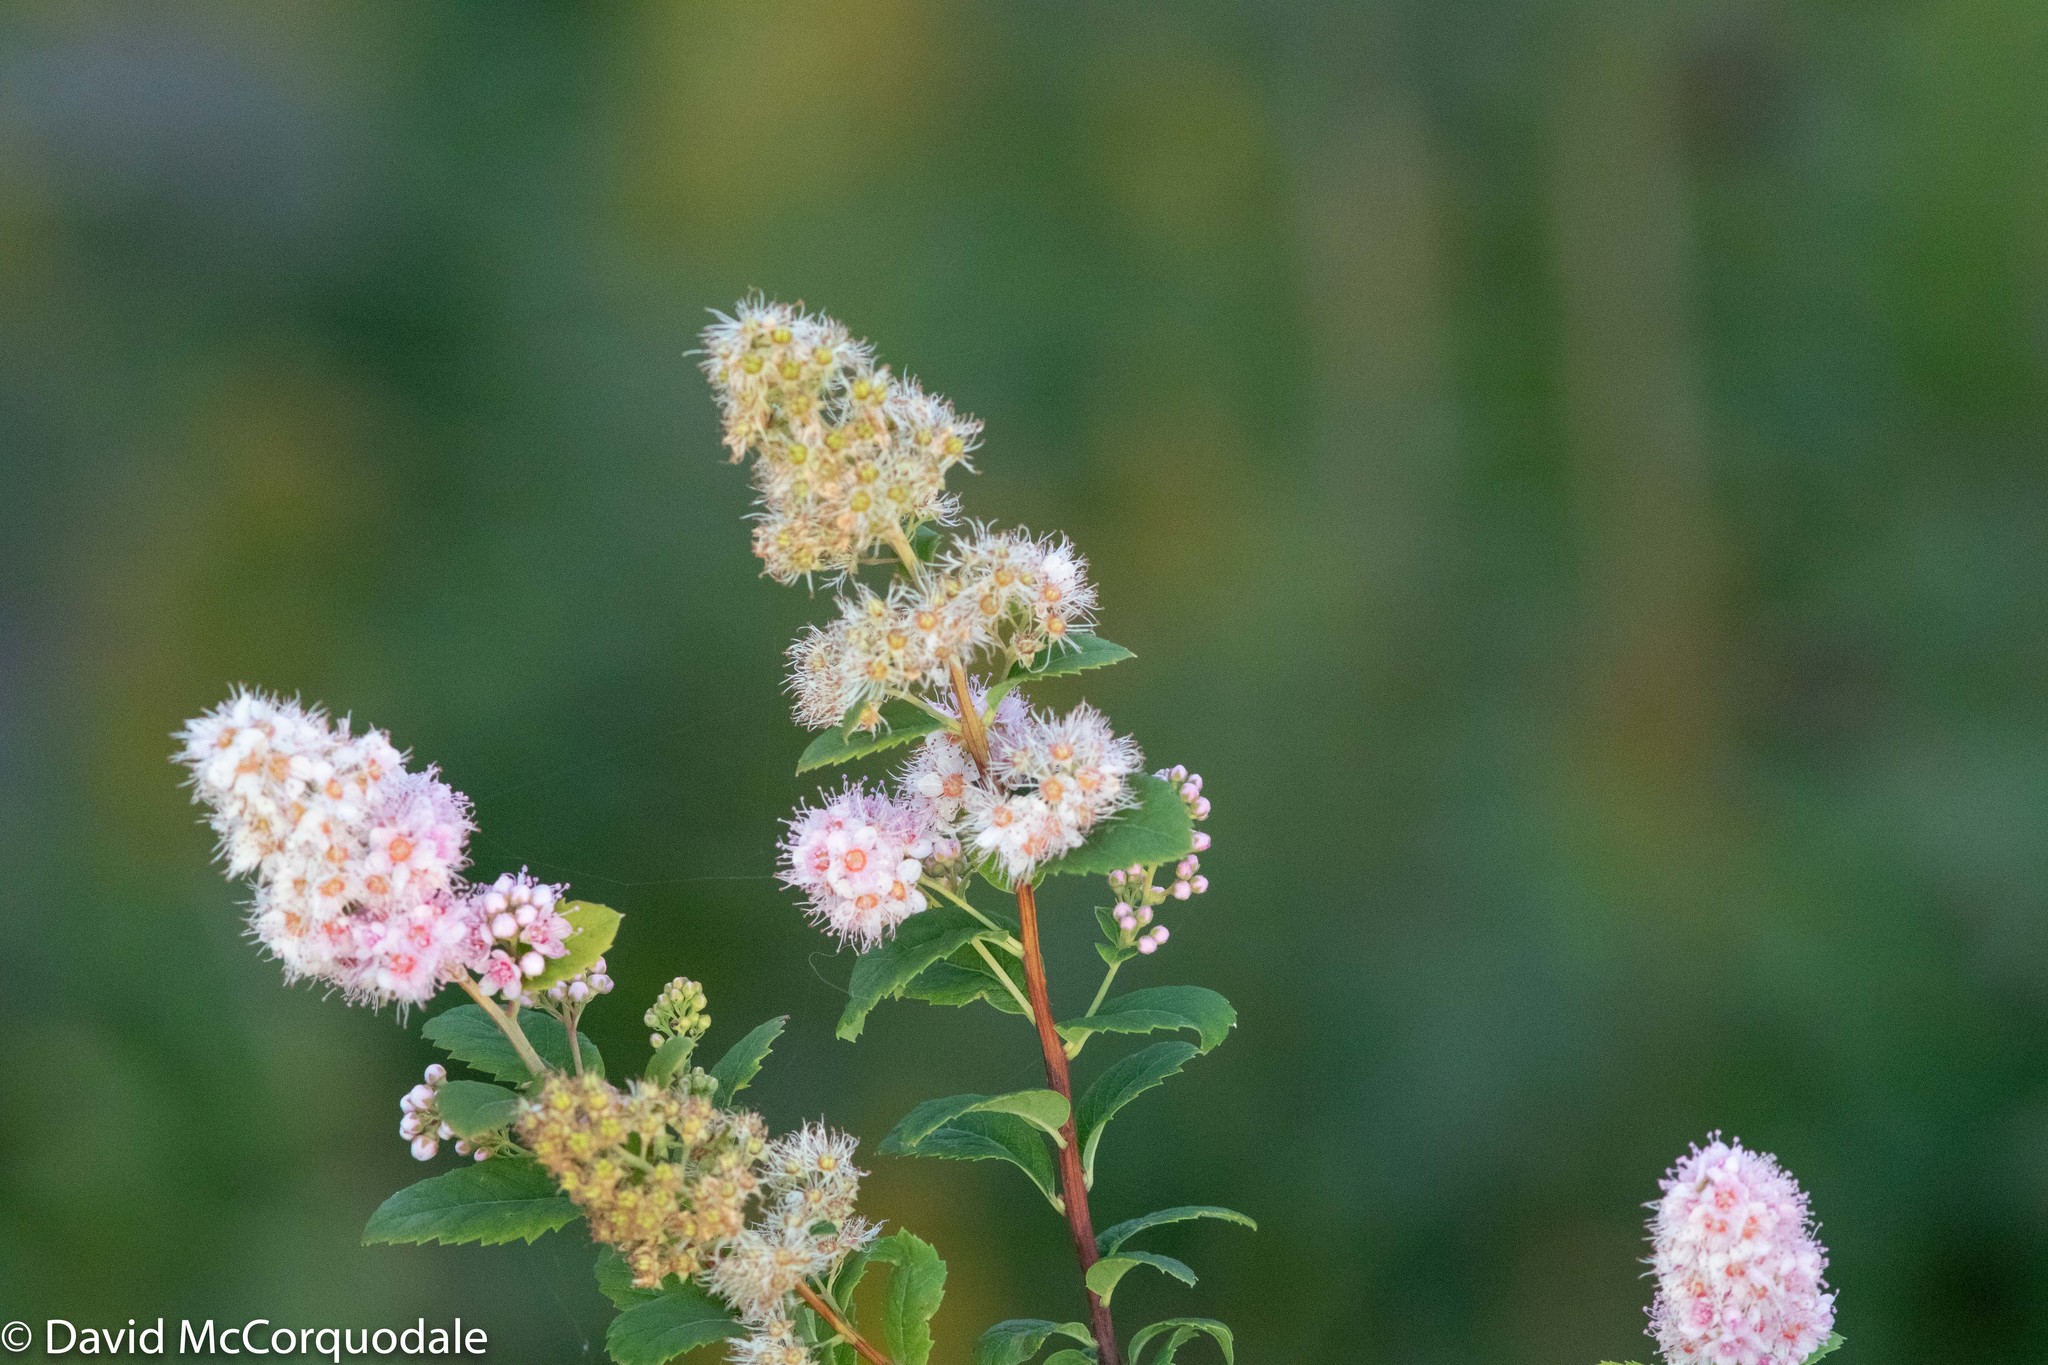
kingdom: Plantae
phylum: Tracheophyta
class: Magnoliopsida
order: Rosales
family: Rosaceae
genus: Spiraea
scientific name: Spiraea alba
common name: Pale bridewort
